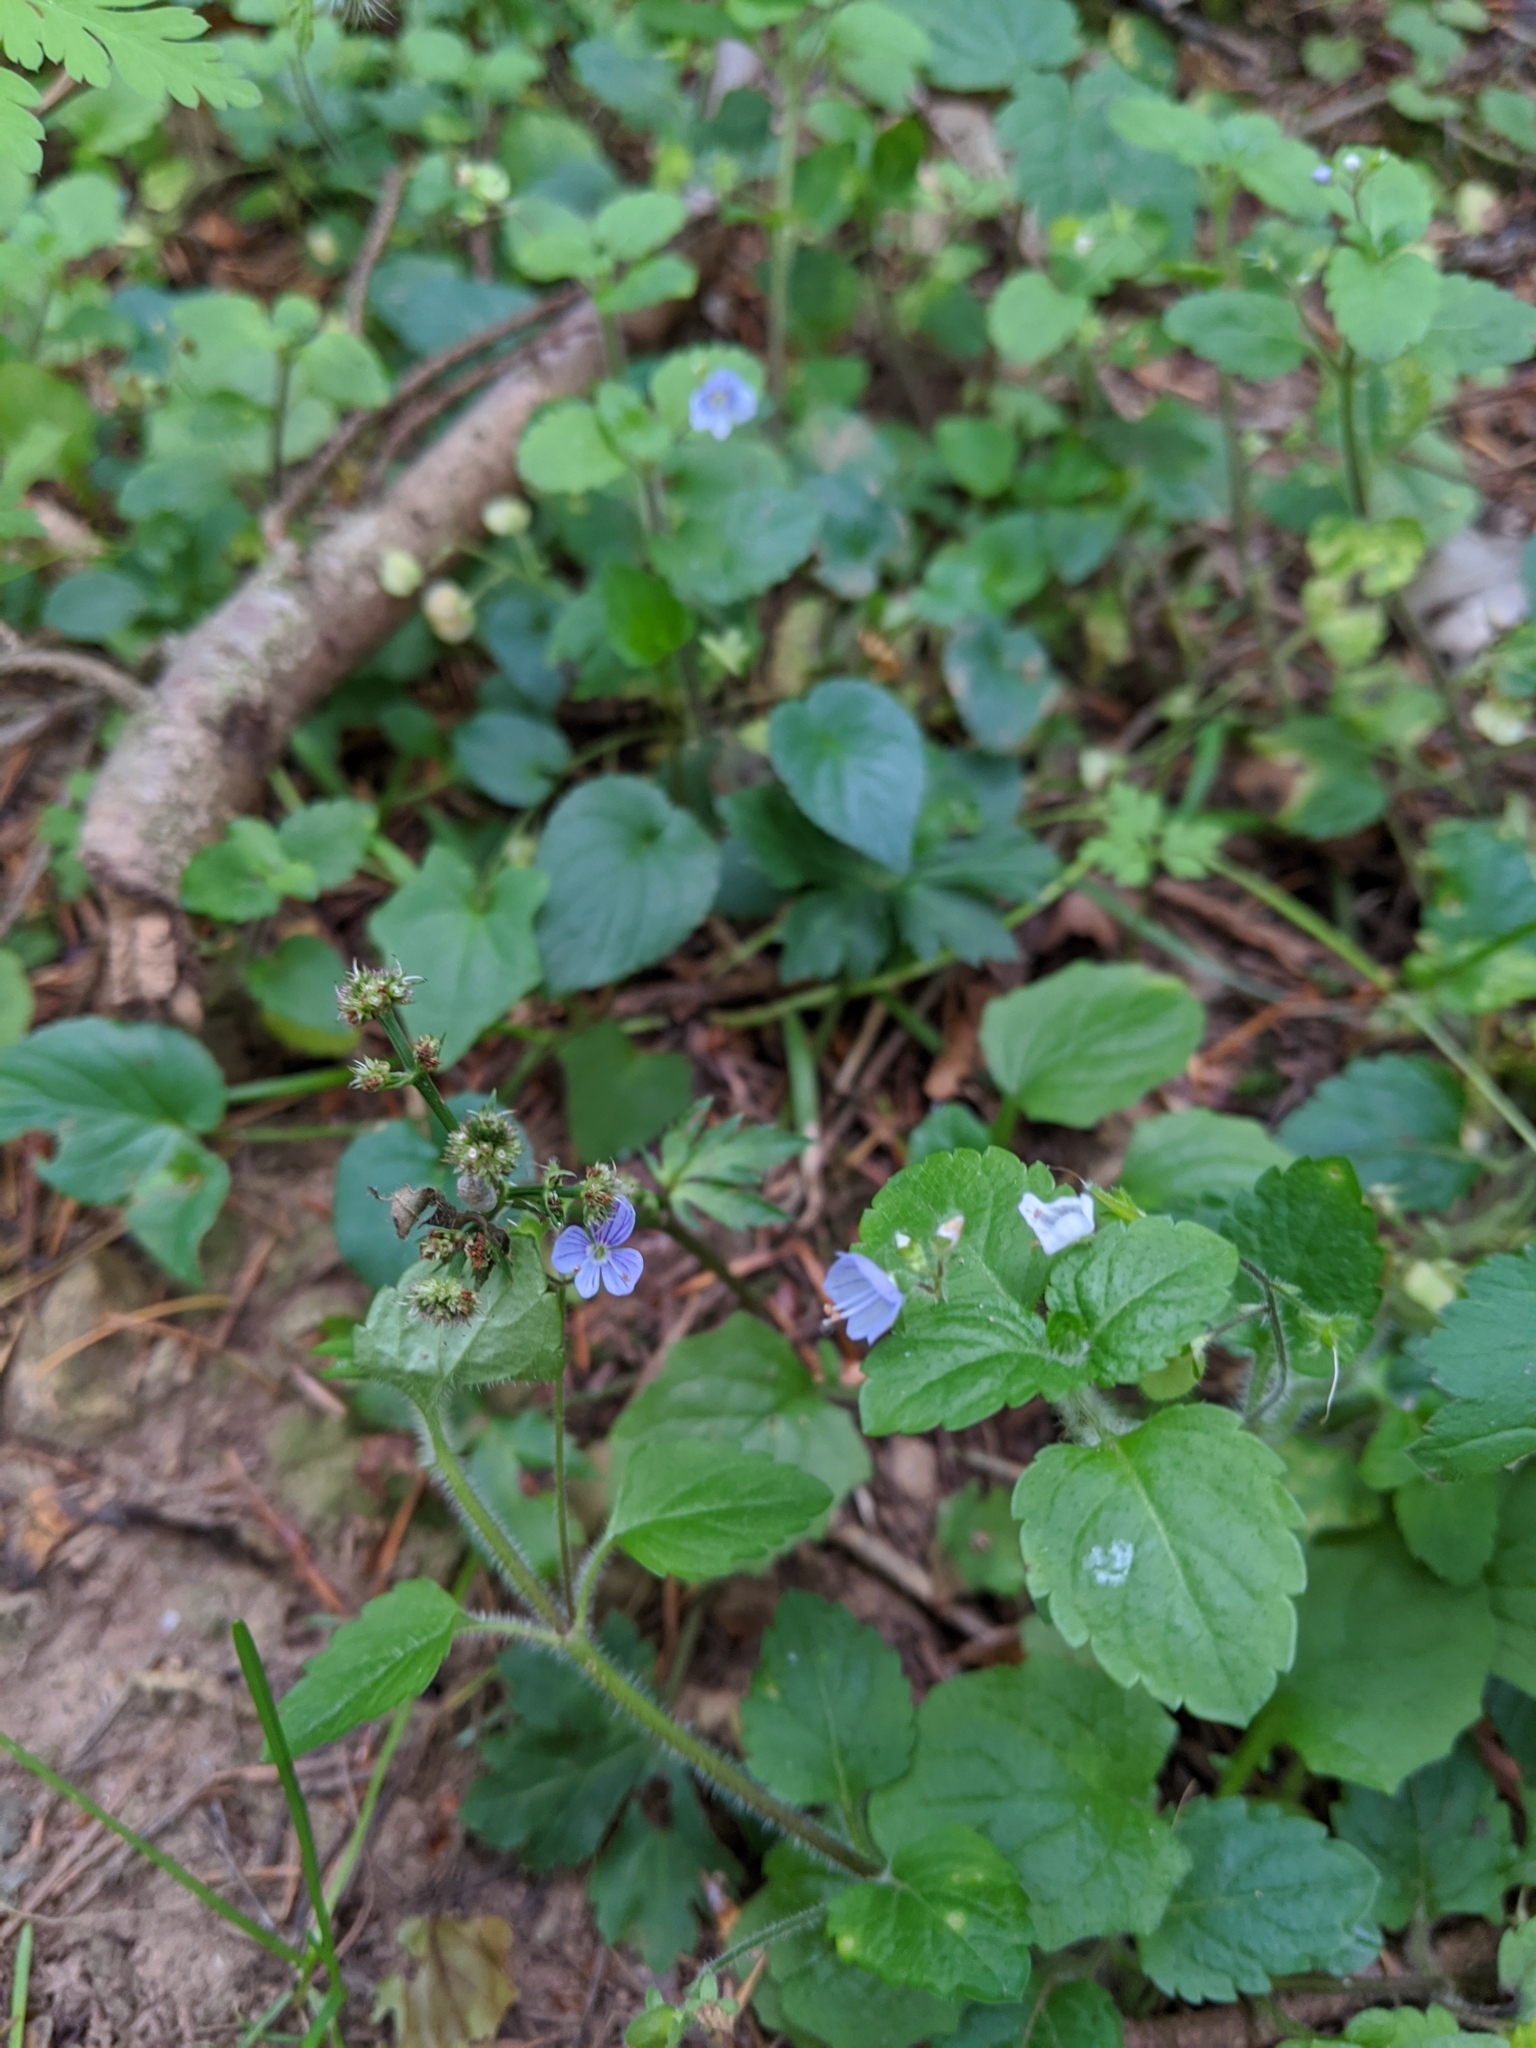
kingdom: Plantae
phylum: Tracheophyta
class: Magnoliopsida
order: Lamiales
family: Plantaginaceae
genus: Veronica
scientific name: Veronica montana
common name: Wood speedwell
